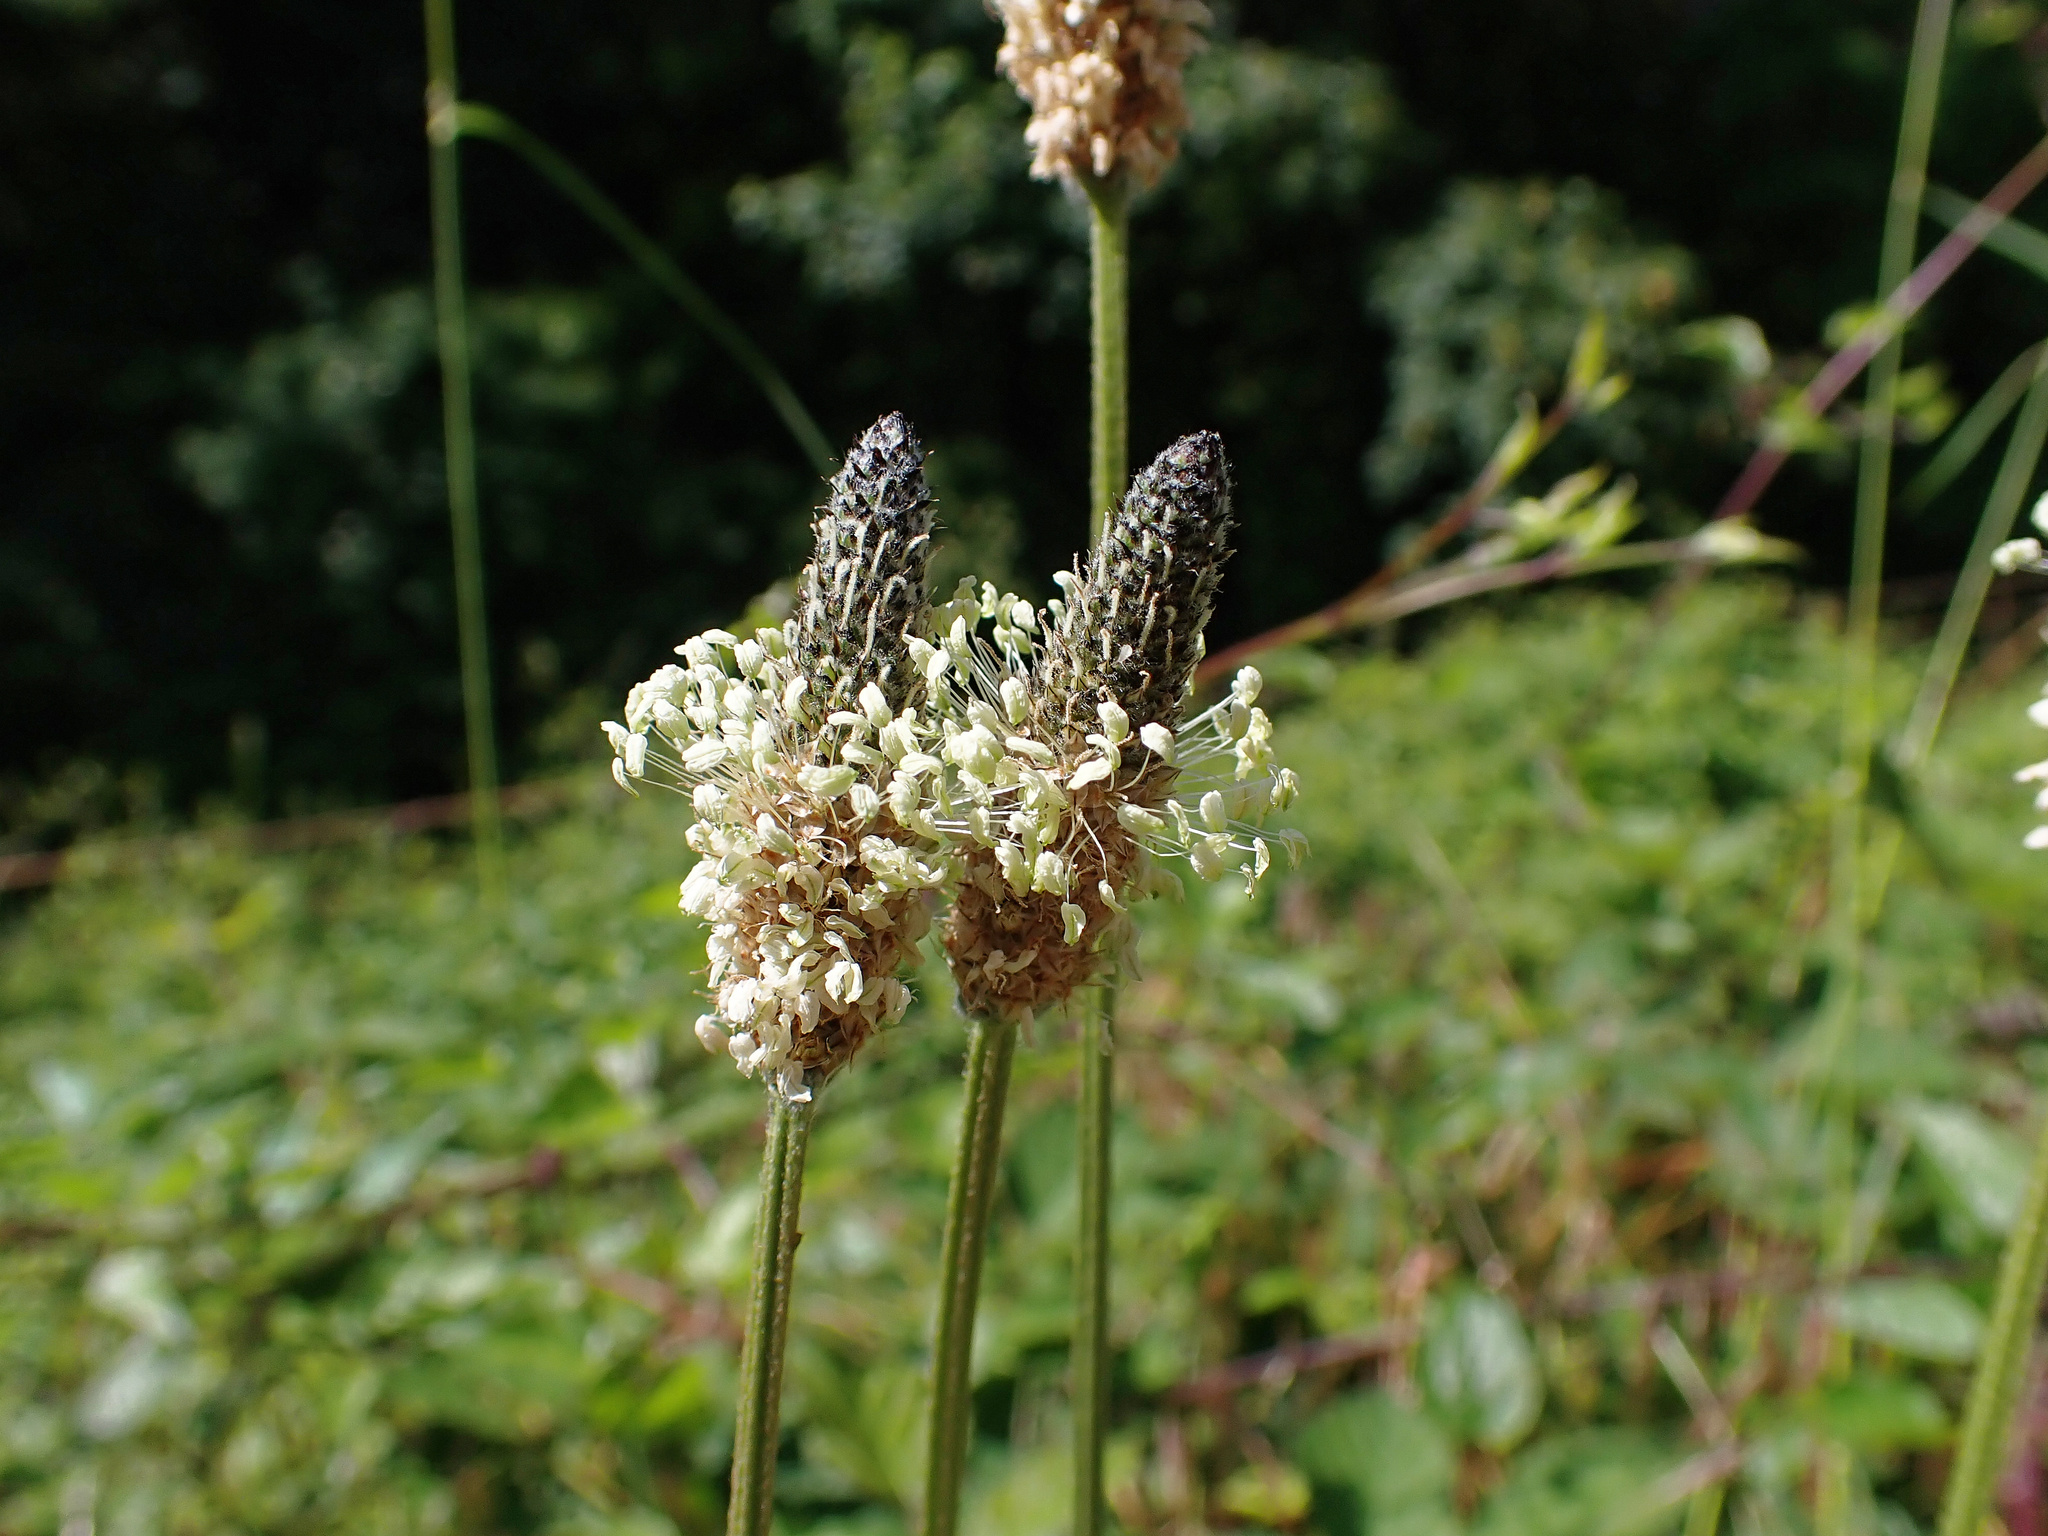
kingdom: Plantae
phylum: Tracheophyta
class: Magnoliopsida
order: Lamiales
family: Plantaginaceae
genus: Plantago
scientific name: Plantago lanceolata
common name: Ribwort plantain
